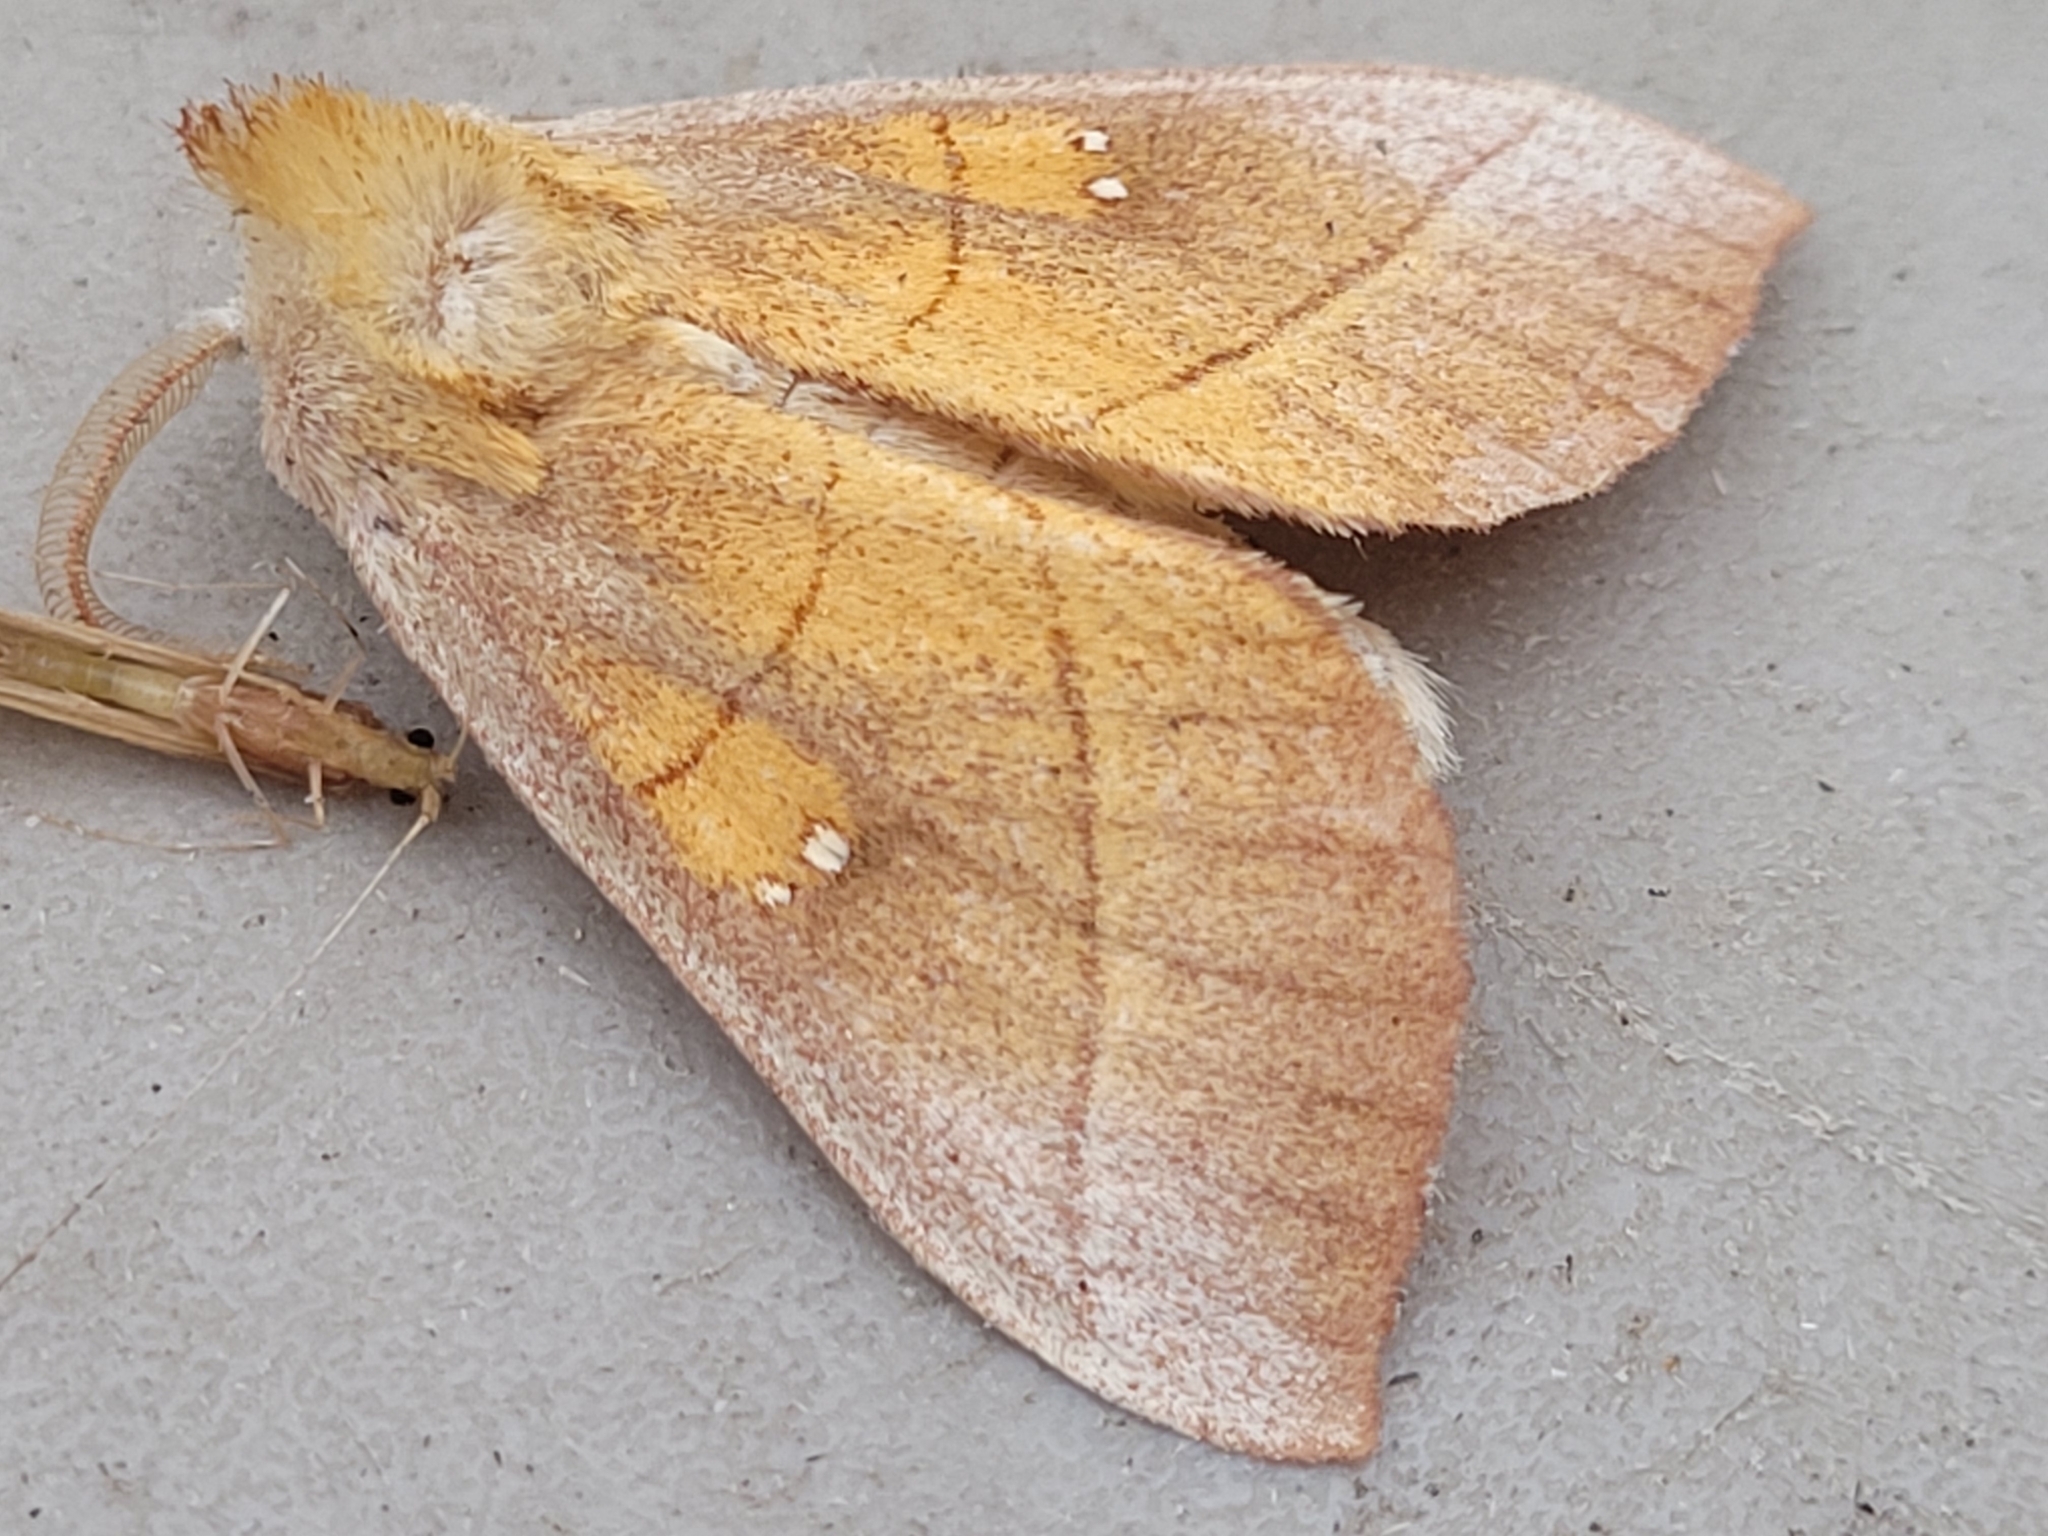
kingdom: Animalia
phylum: Arthropoda
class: Insecta
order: Lepidoptera
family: Notodontidae
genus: Nadata
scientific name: Nadata gibbosa
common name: White-dotted prominent
